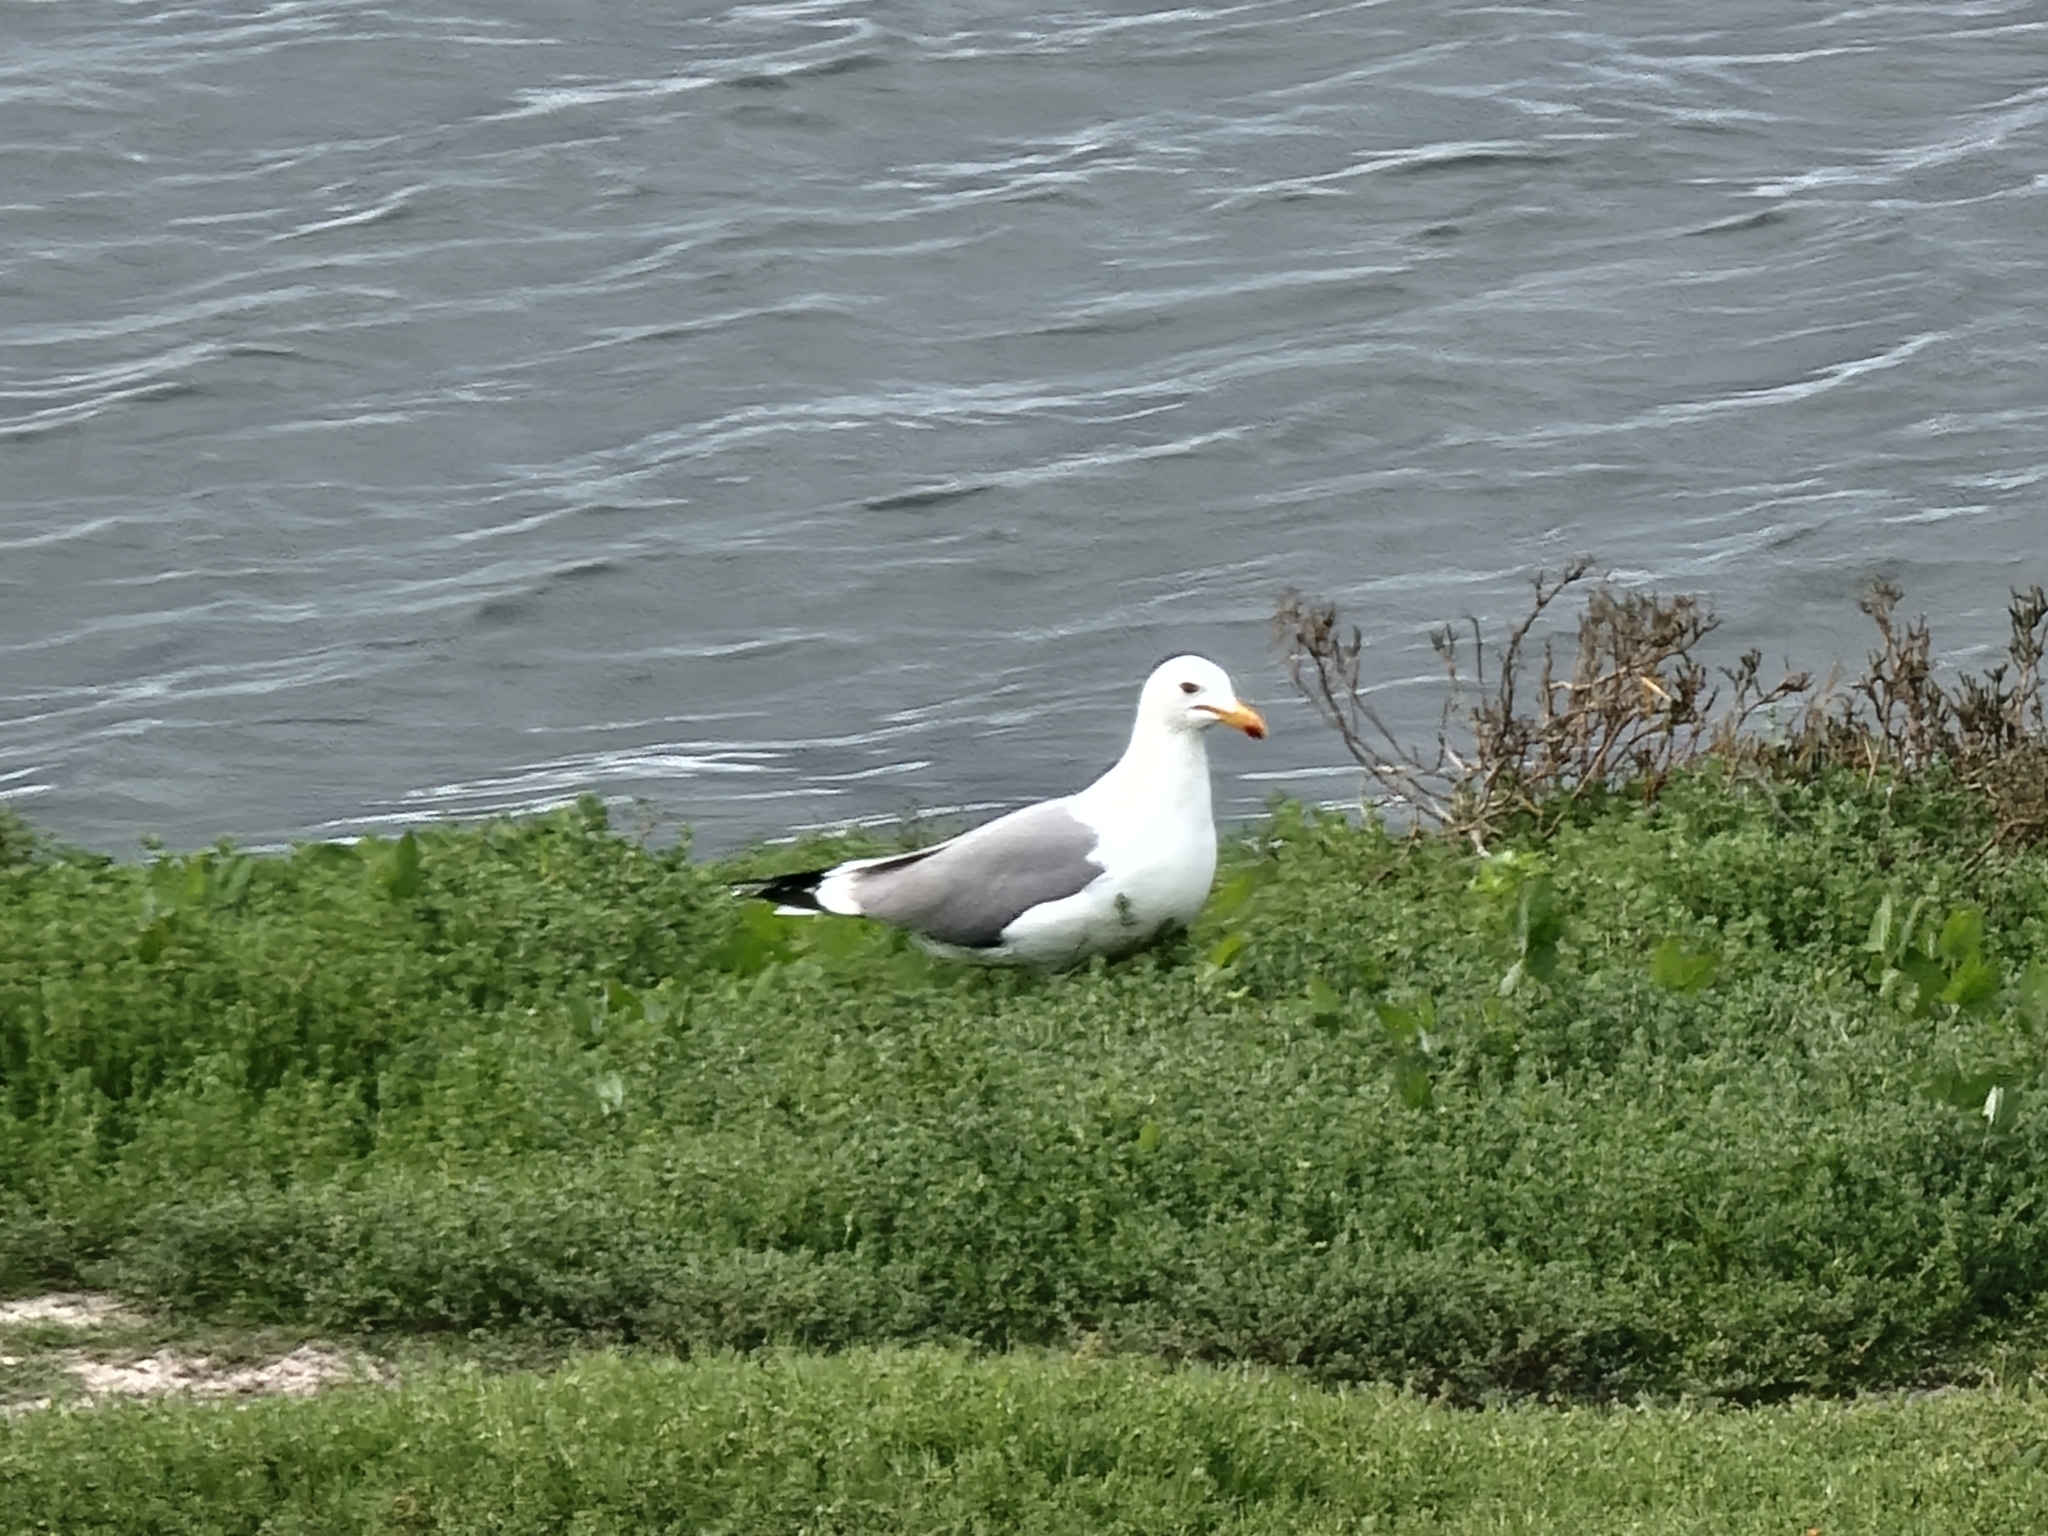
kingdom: Animalia
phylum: Chordata
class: Aves
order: Charadriiformes
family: Laridae
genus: Larus
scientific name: Larus californicus
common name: California gull
